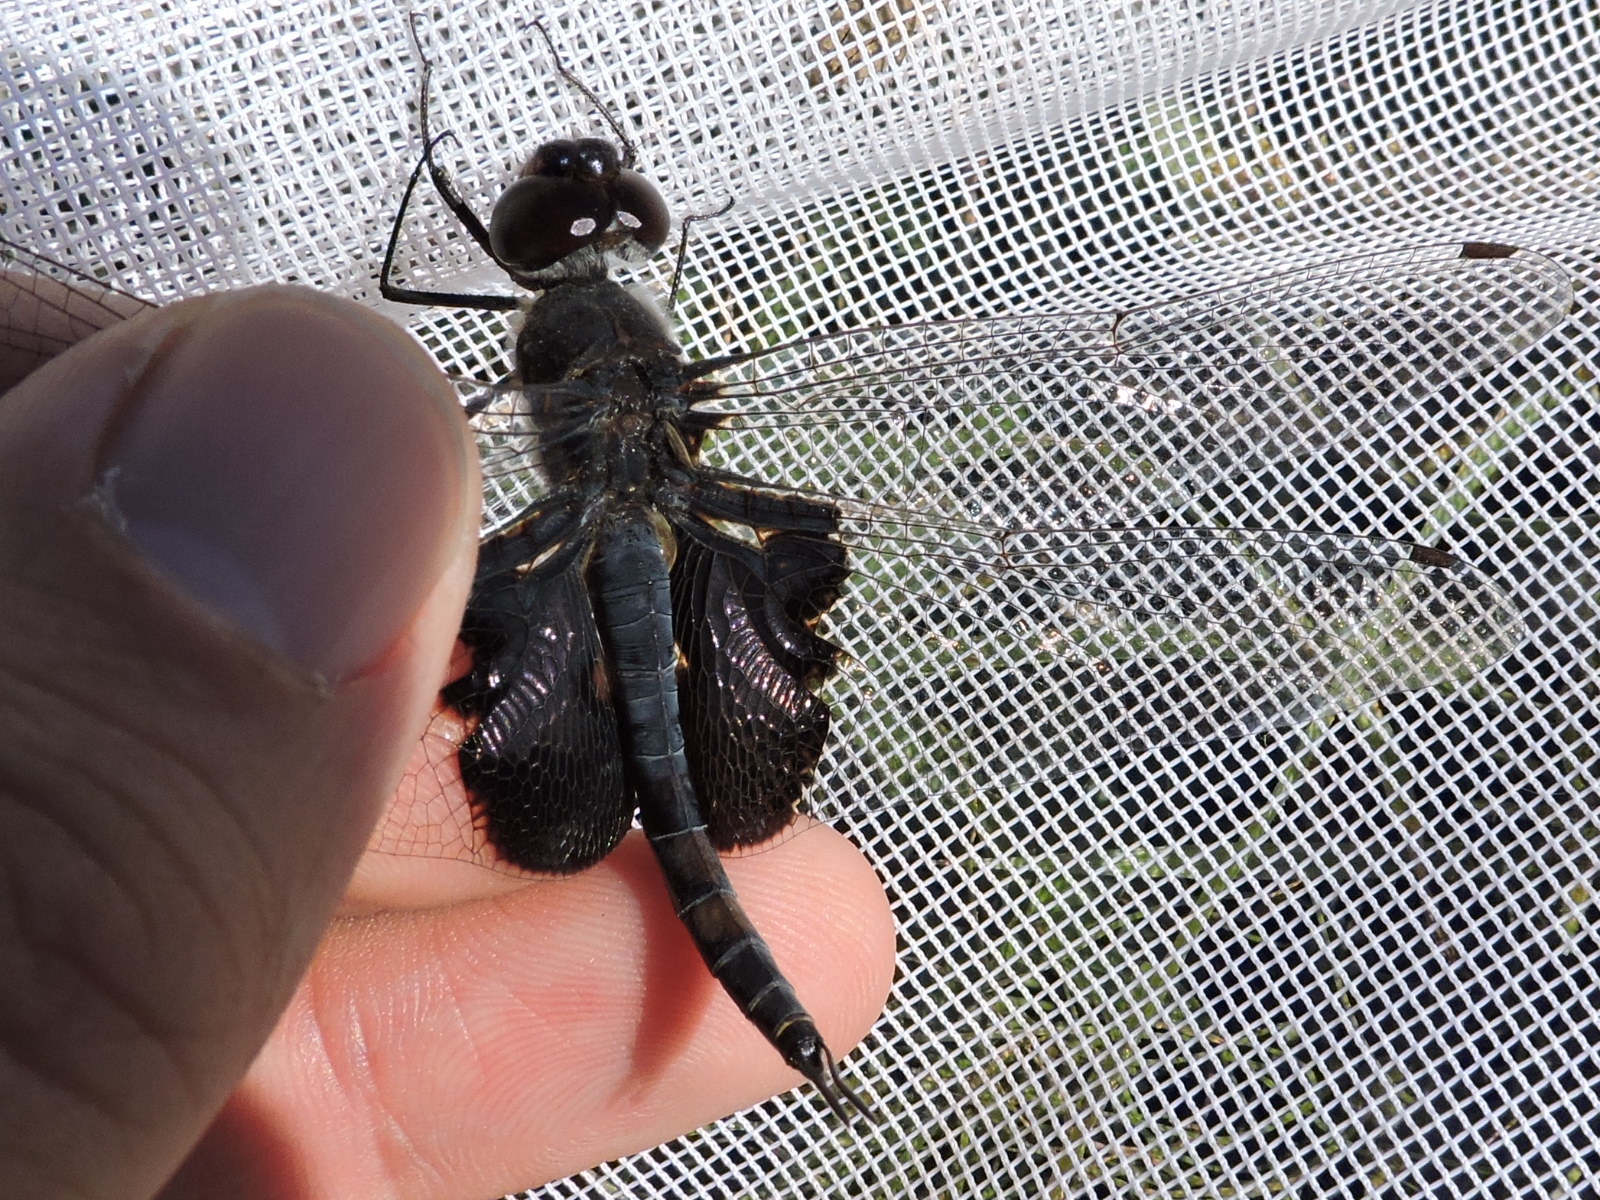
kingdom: Animalia
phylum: Arthropoda
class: Insecta
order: Odonata
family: Libellulidae
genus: Tramea
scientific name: Tramea lacerata
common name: Black saddlebags
